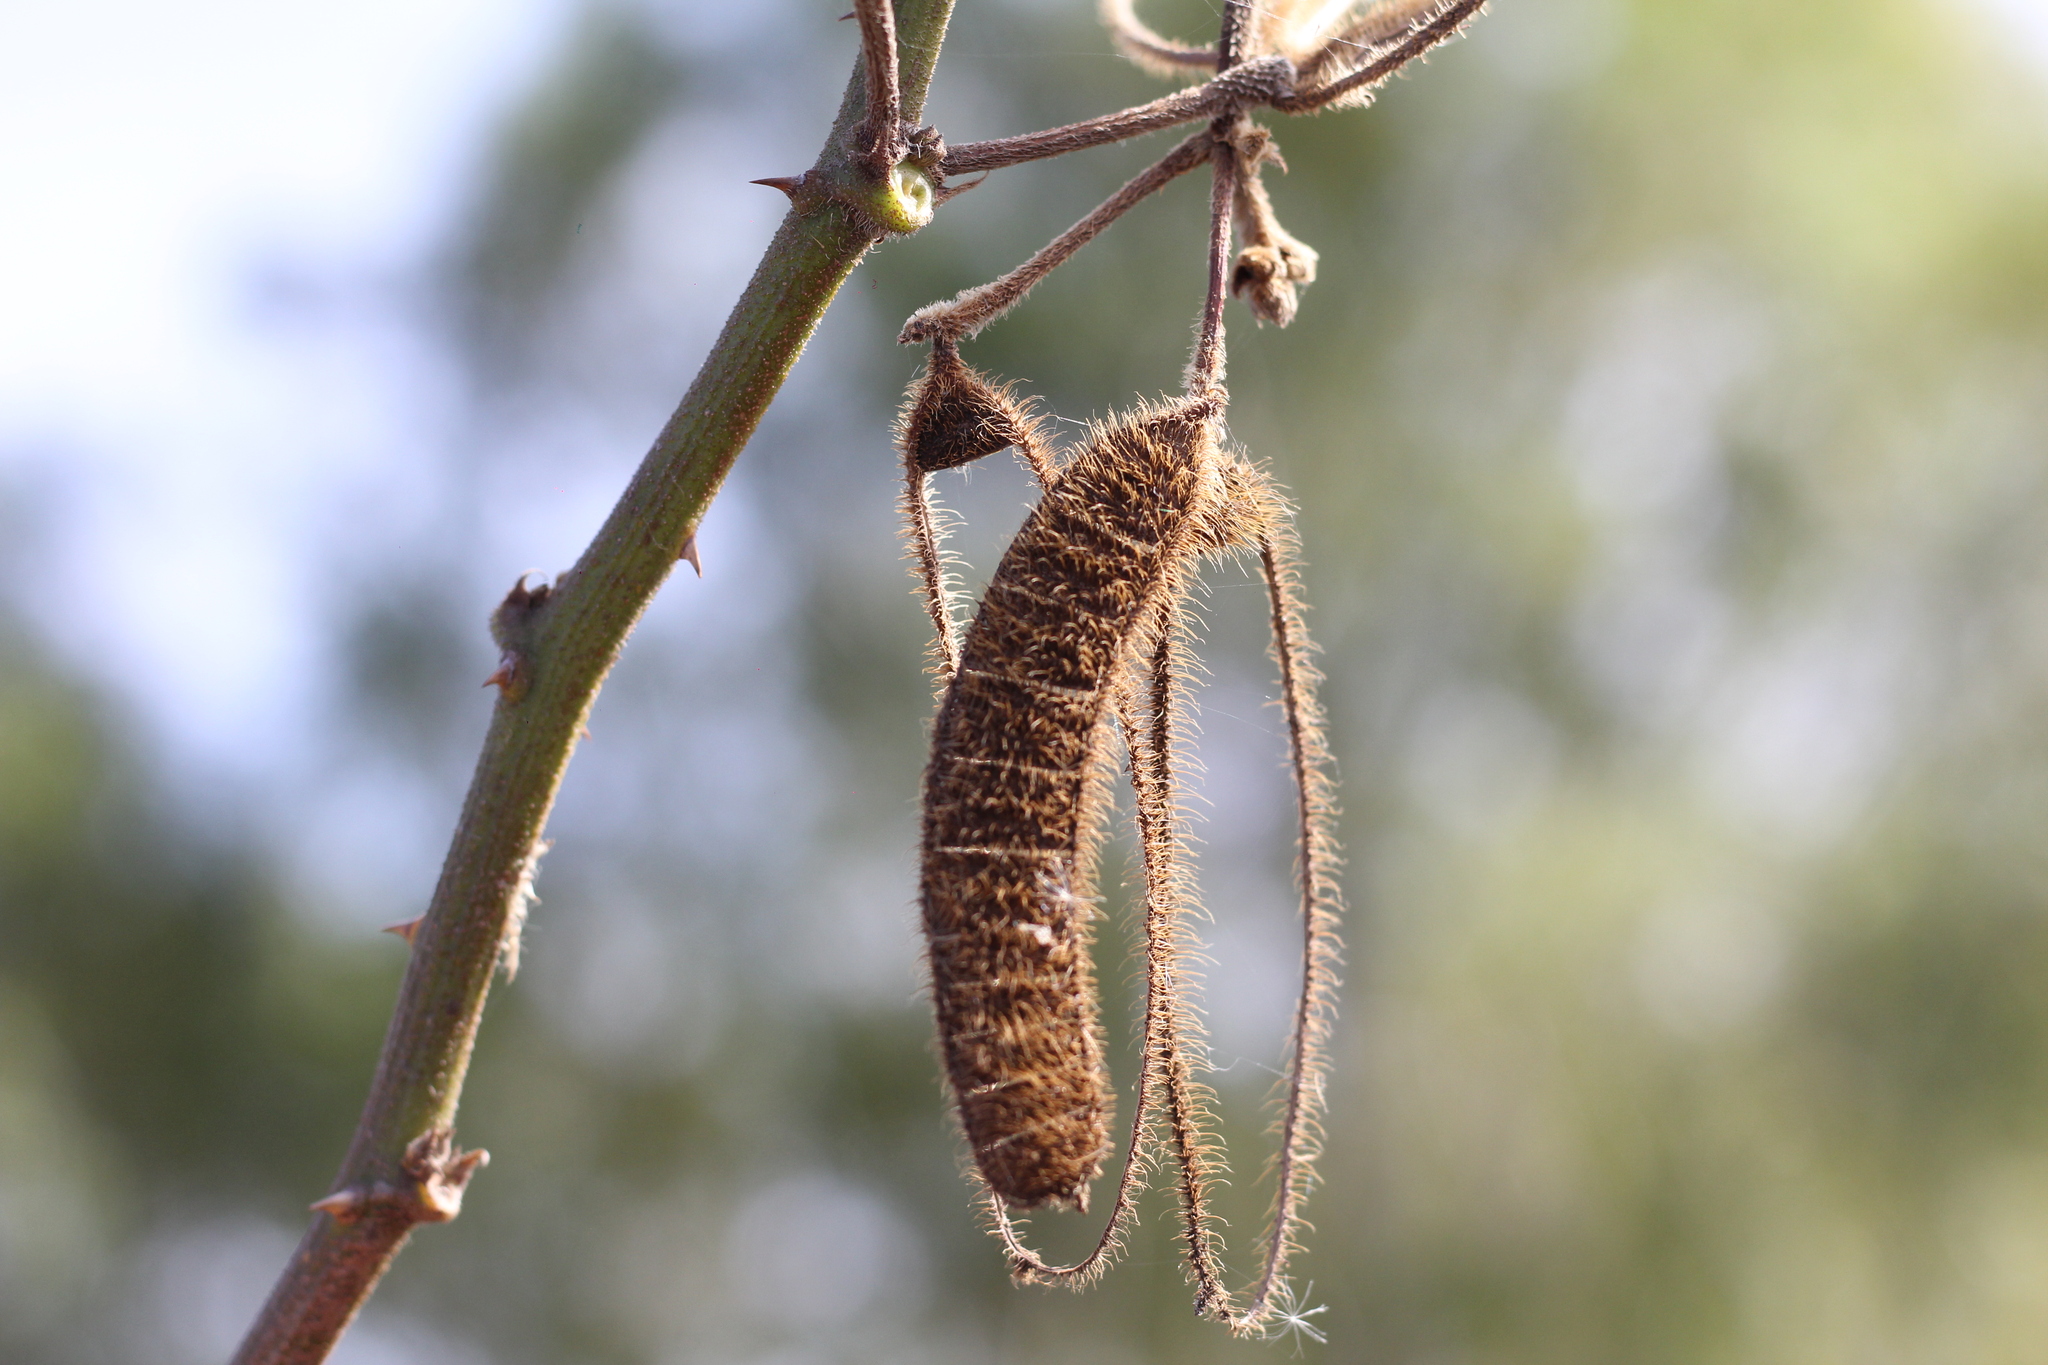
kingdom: Plantae
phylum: Tracheophyta
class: Magnoliopsida
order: Fabales
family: Fabaceae
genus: Mimosa
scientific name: Mimosa pigra
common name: Black mimosa
